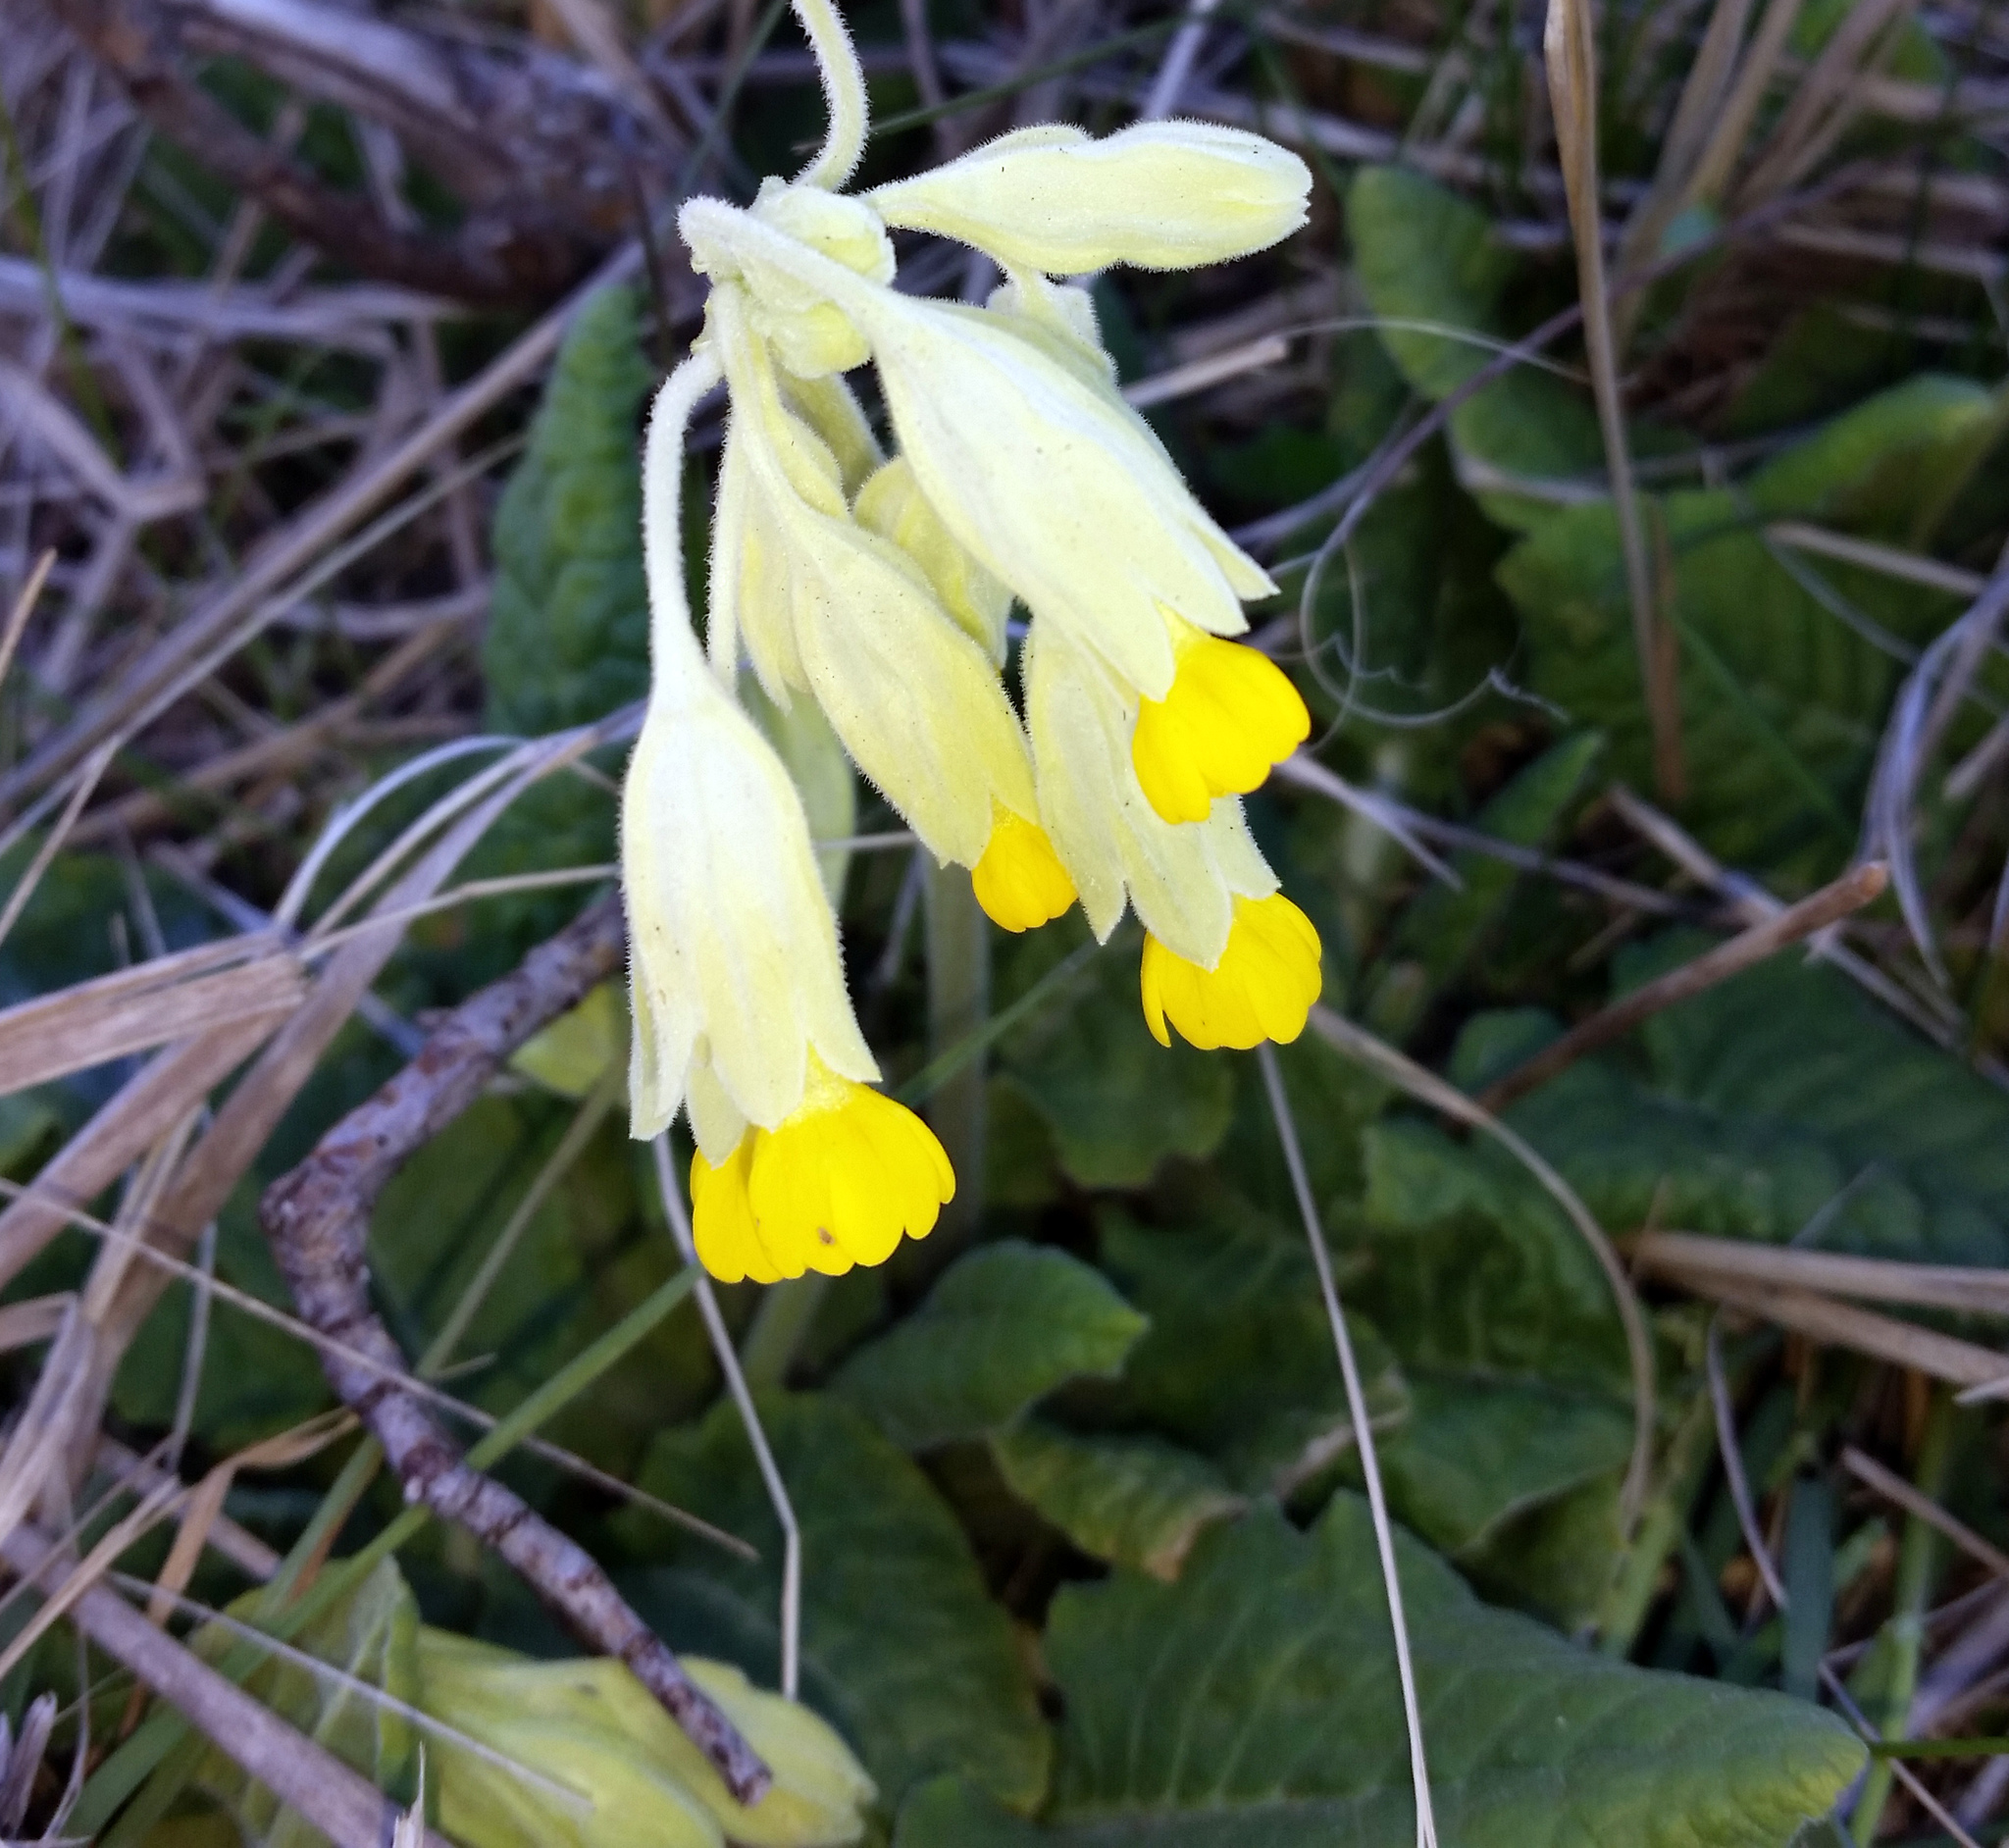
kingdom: Plantae
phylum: Tracheophyta
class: Magnoliopsida
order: Ericales
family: Primulaceae
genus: Primula
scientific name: Primula veris
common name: Cowslip
